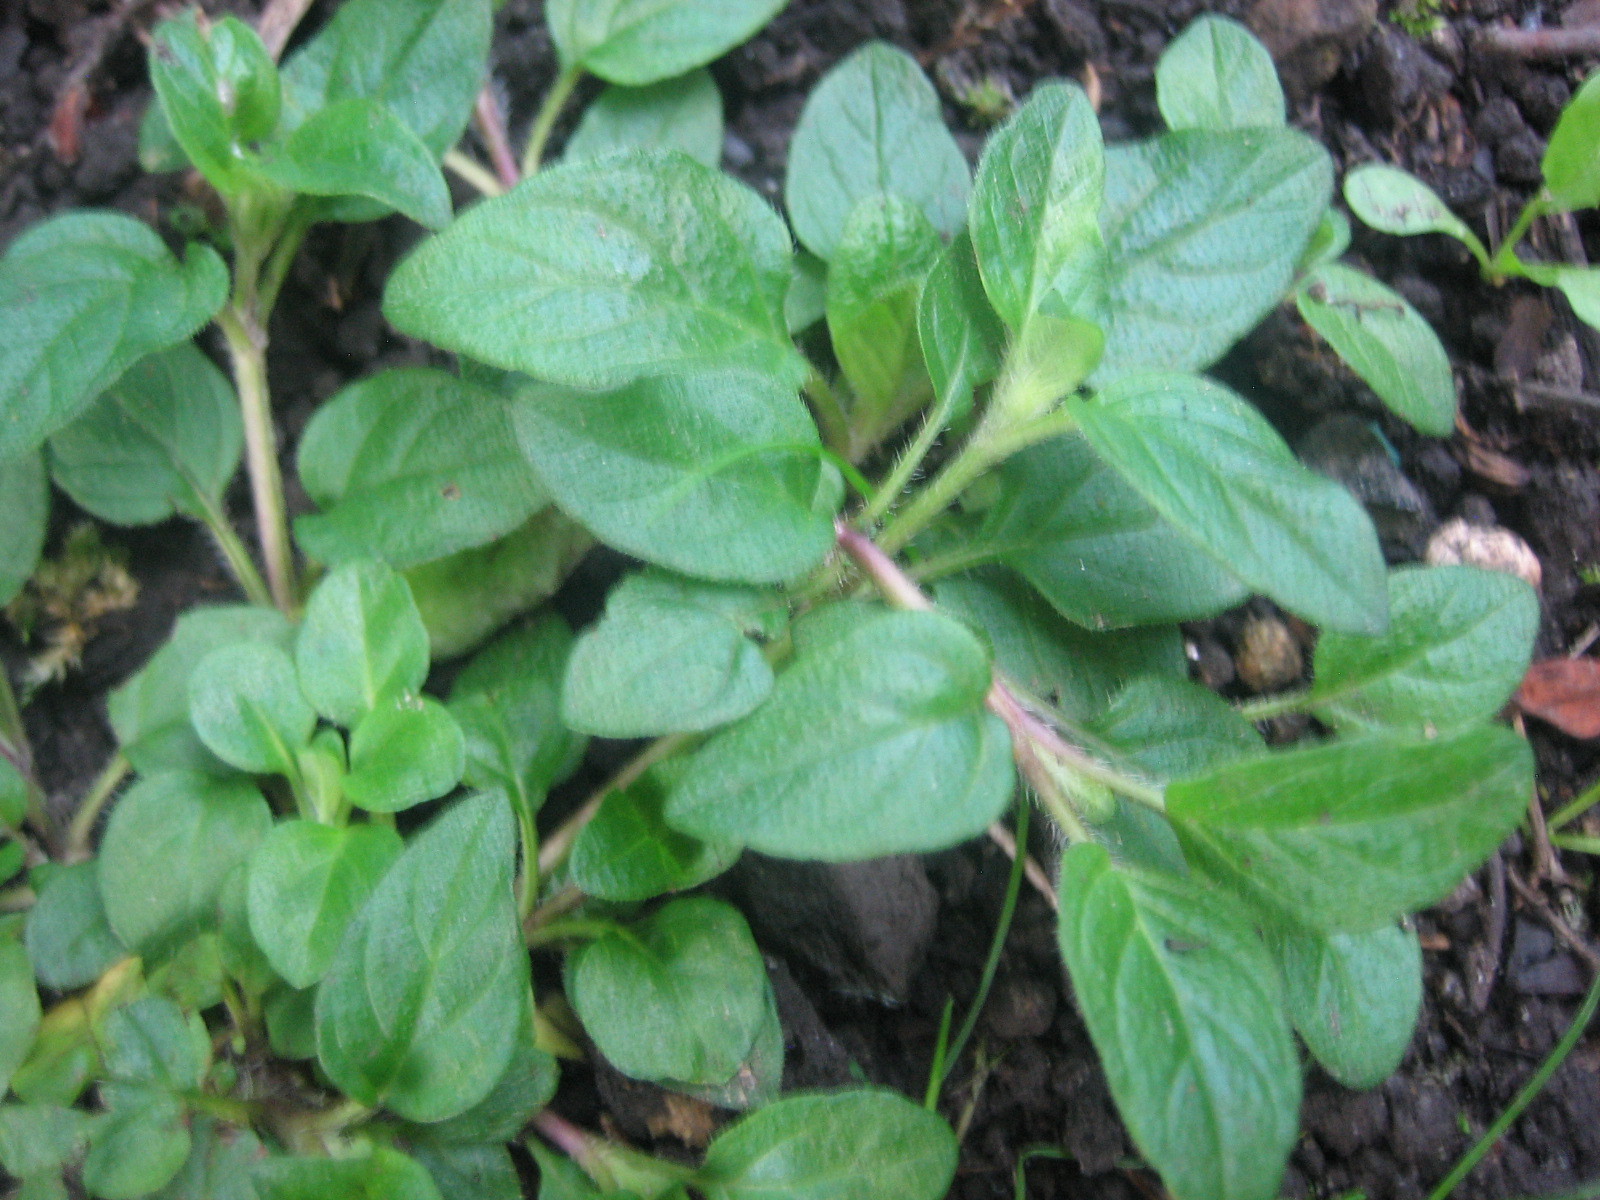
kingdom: Plantae
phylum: Tracheophyta
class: Magnoliopsida
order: Lamiales
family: Lamiaceae
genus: Prunella
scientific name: Prunella vulgaris
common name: Heal-all
